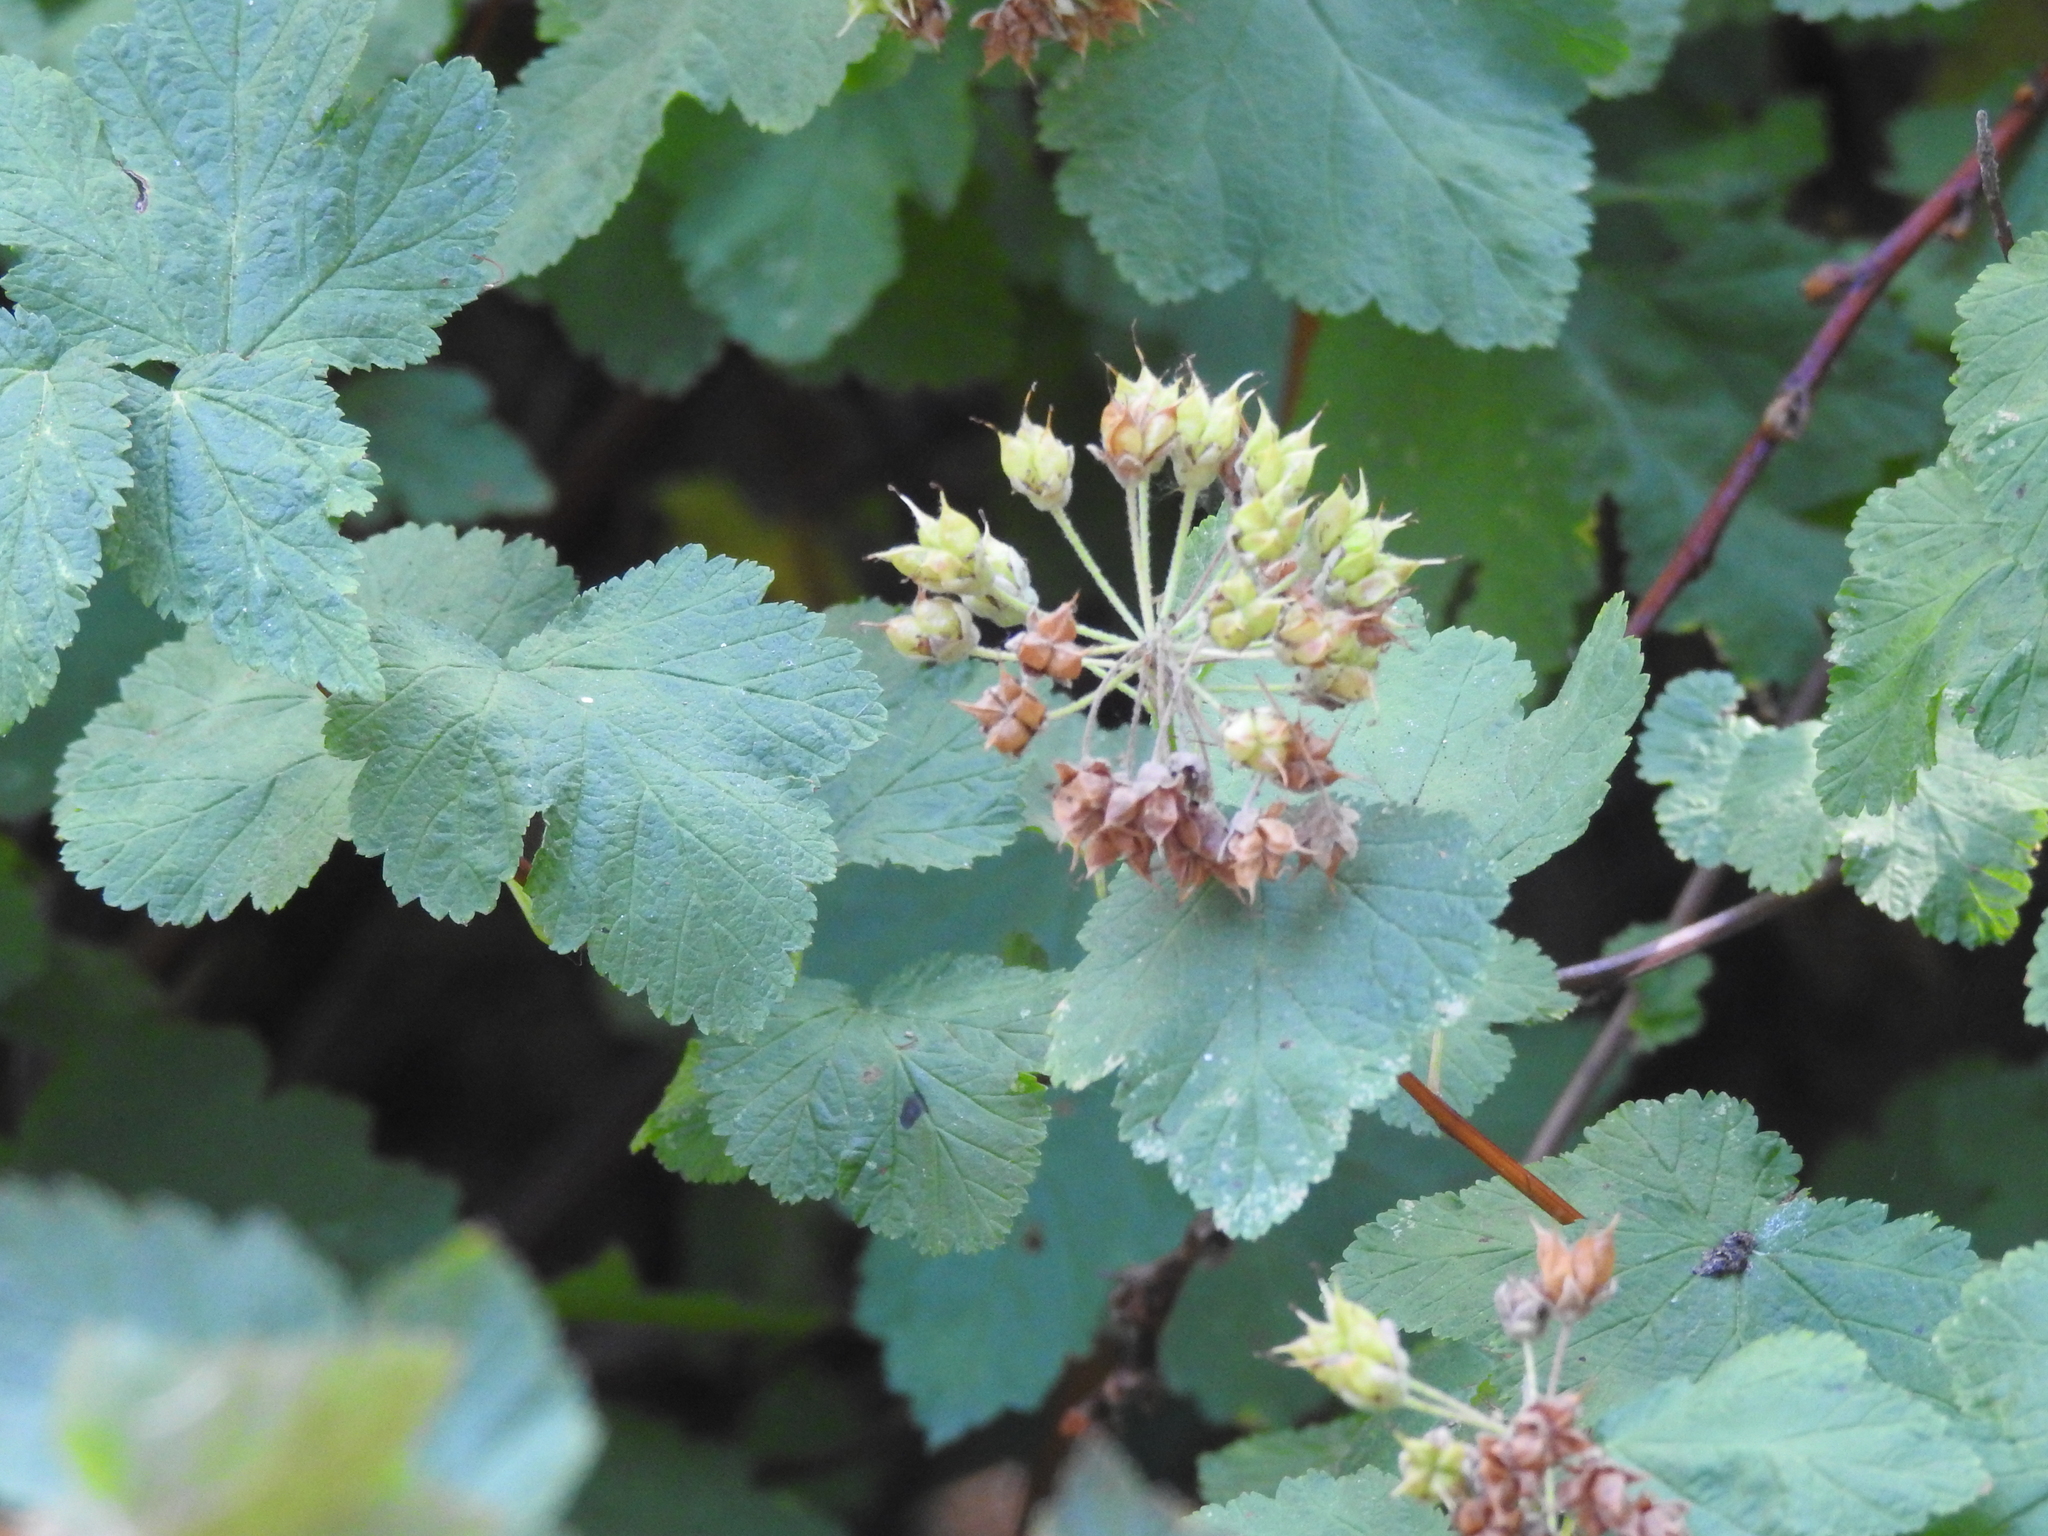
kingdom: Plantae
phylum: Tracheophyta
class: Magnoliopsida
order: Rosales
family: Rosaceae
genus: Physocarpus
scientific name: Physocarpus capitatus
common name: Pacific ninebark
